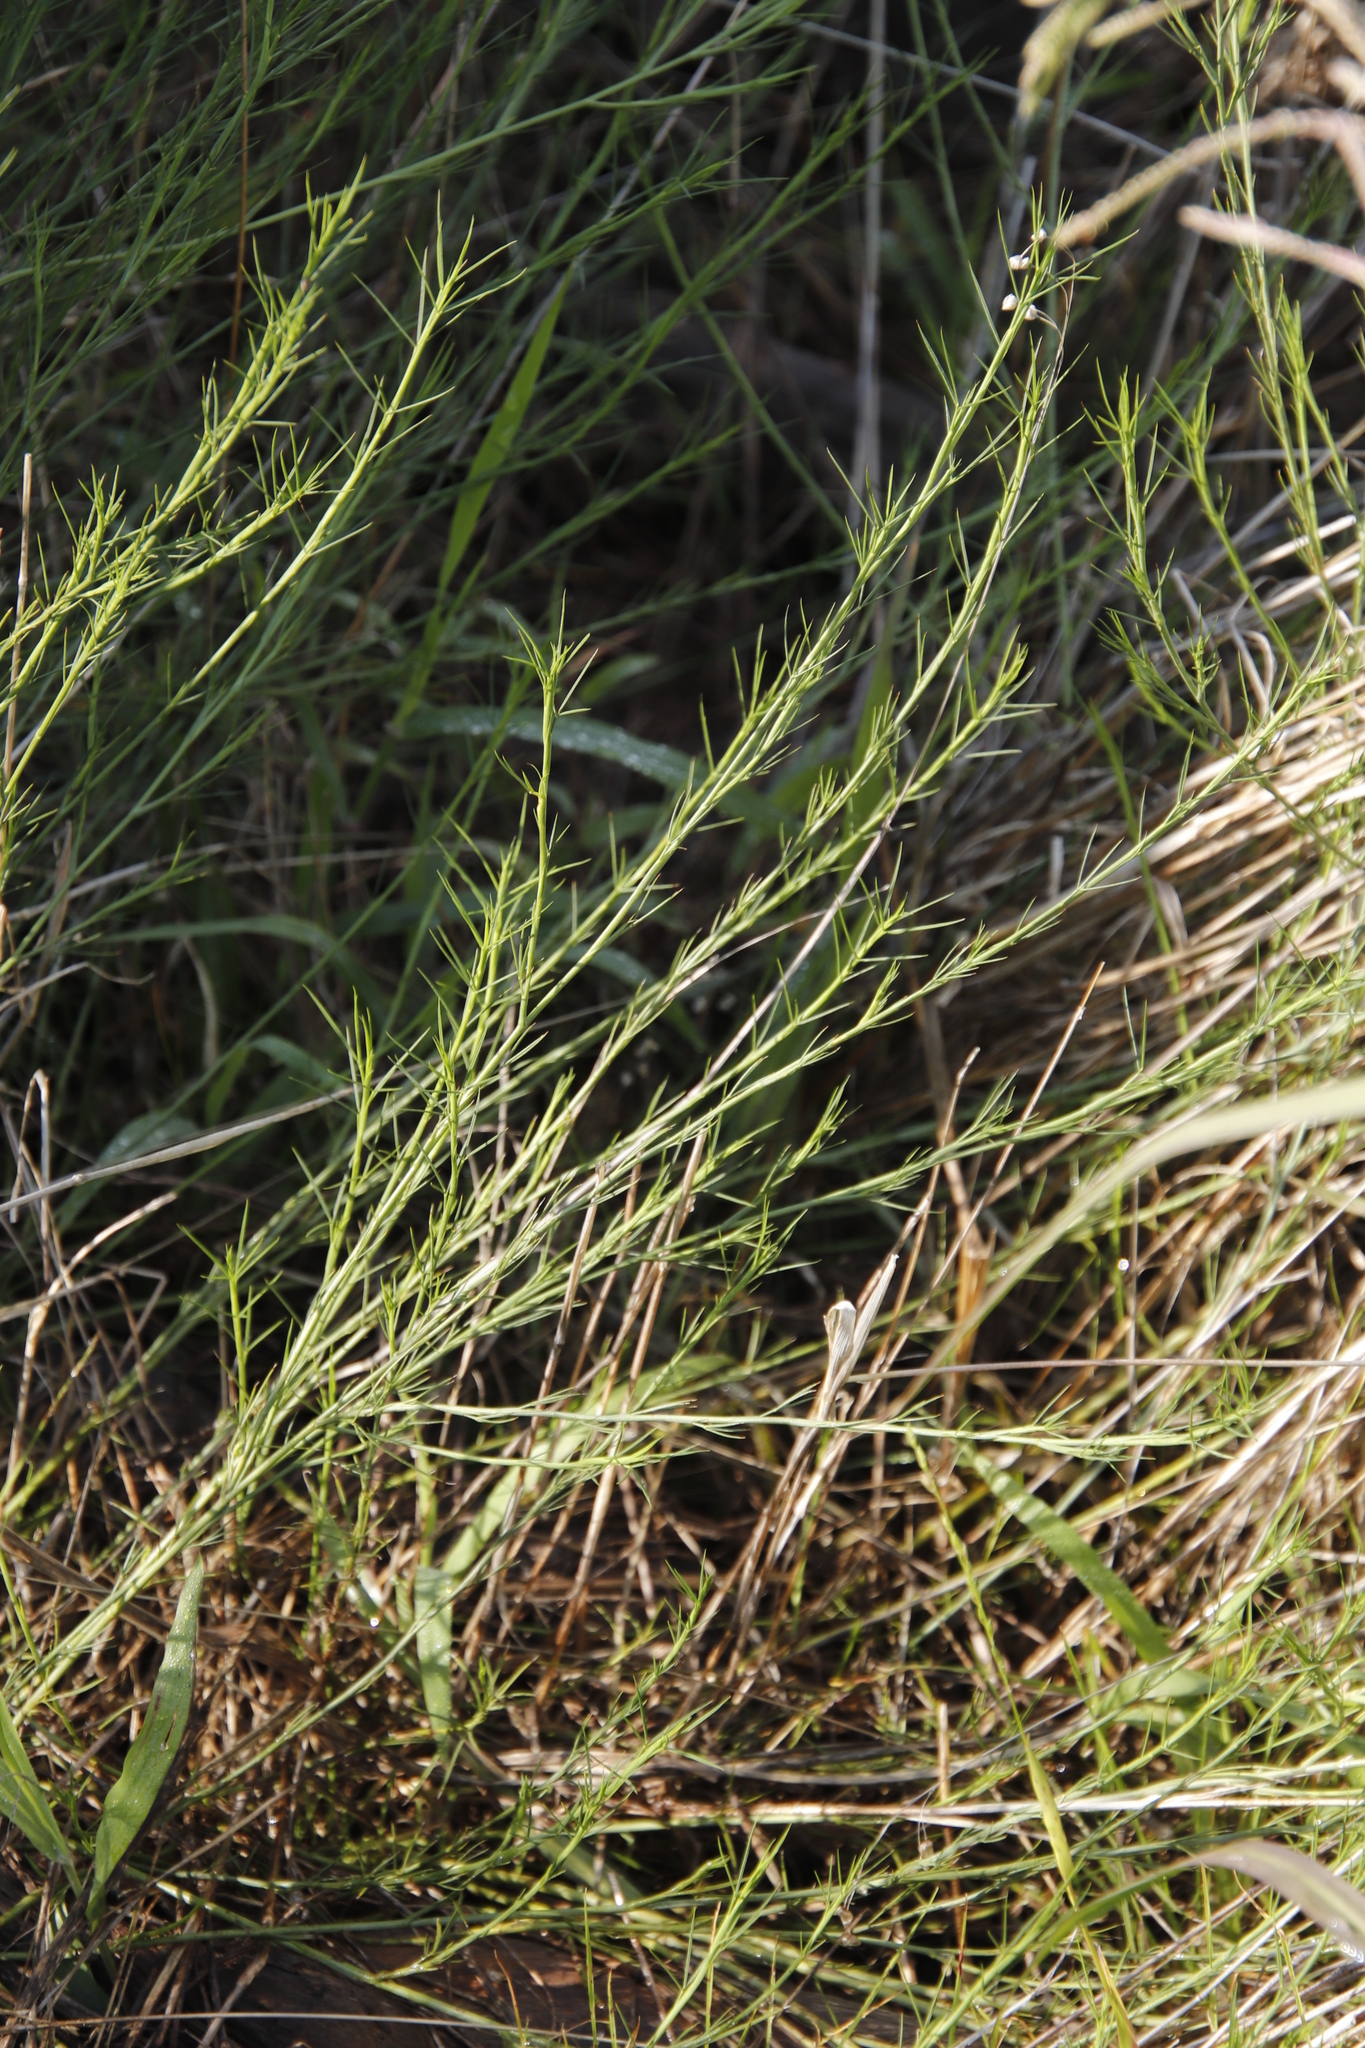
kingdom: Plantae
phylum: Tracheophyta
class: Magnoliopsida
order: Fabales
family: Fabaceae
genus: Psoralea
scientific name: Psoralea fascicularis
